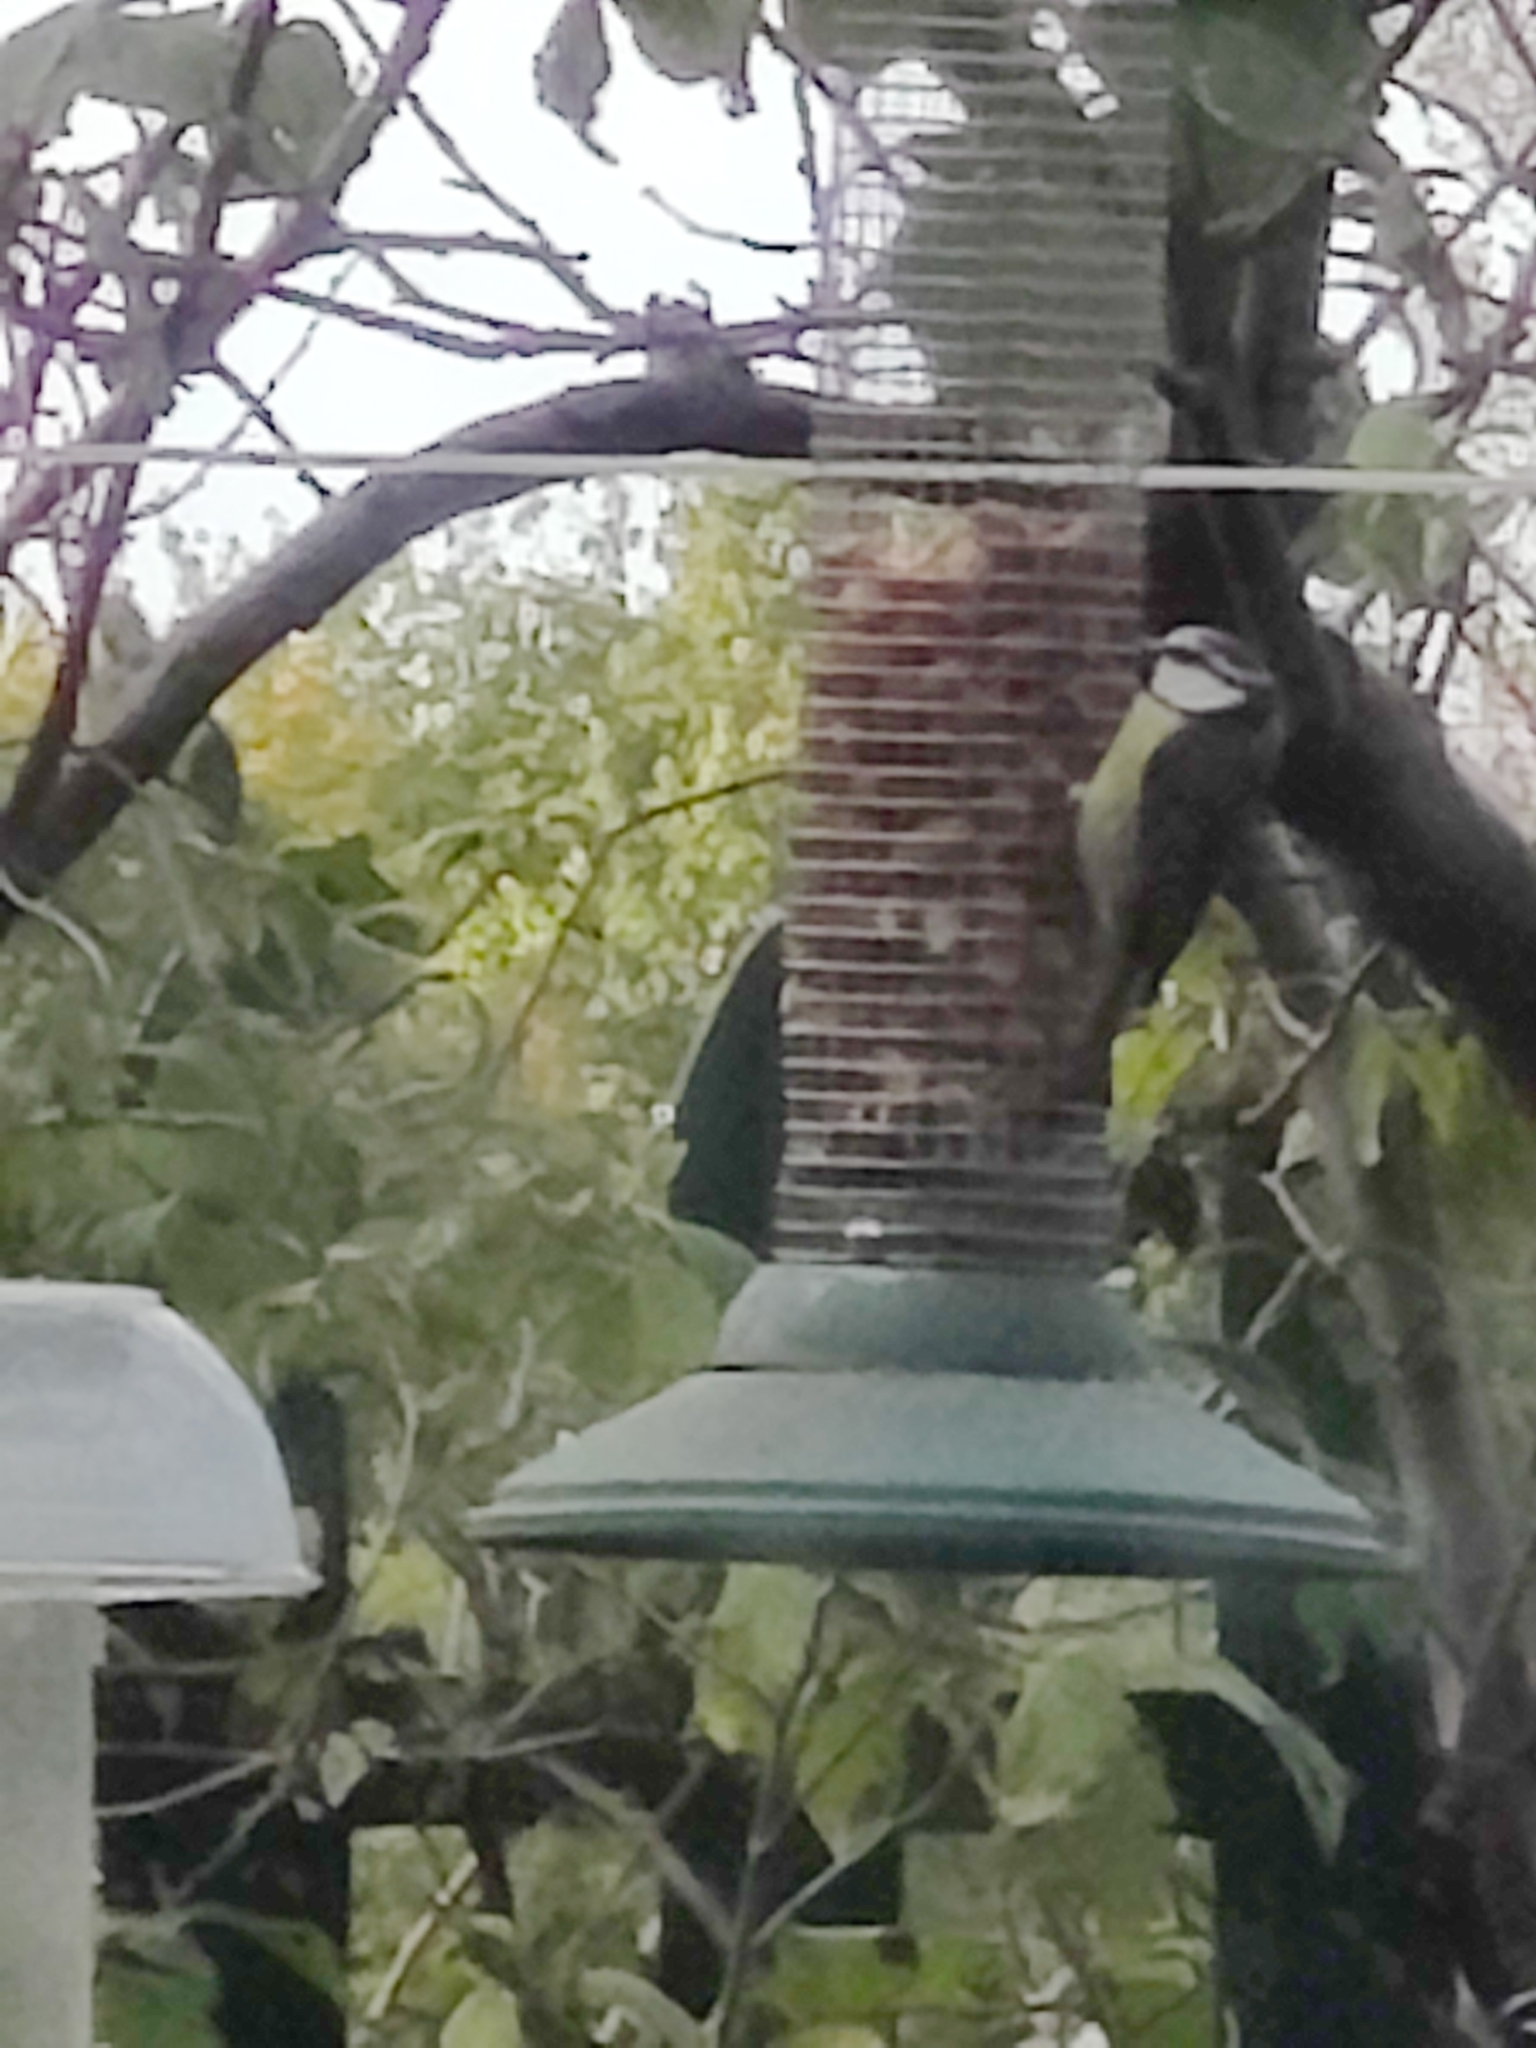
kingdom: Animalia
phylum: Chordata
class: Aves
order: Passeriformes
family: Paridae
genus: Cyanistes
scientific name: Cyanistes caeruleus
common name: Eurasian blue tit
